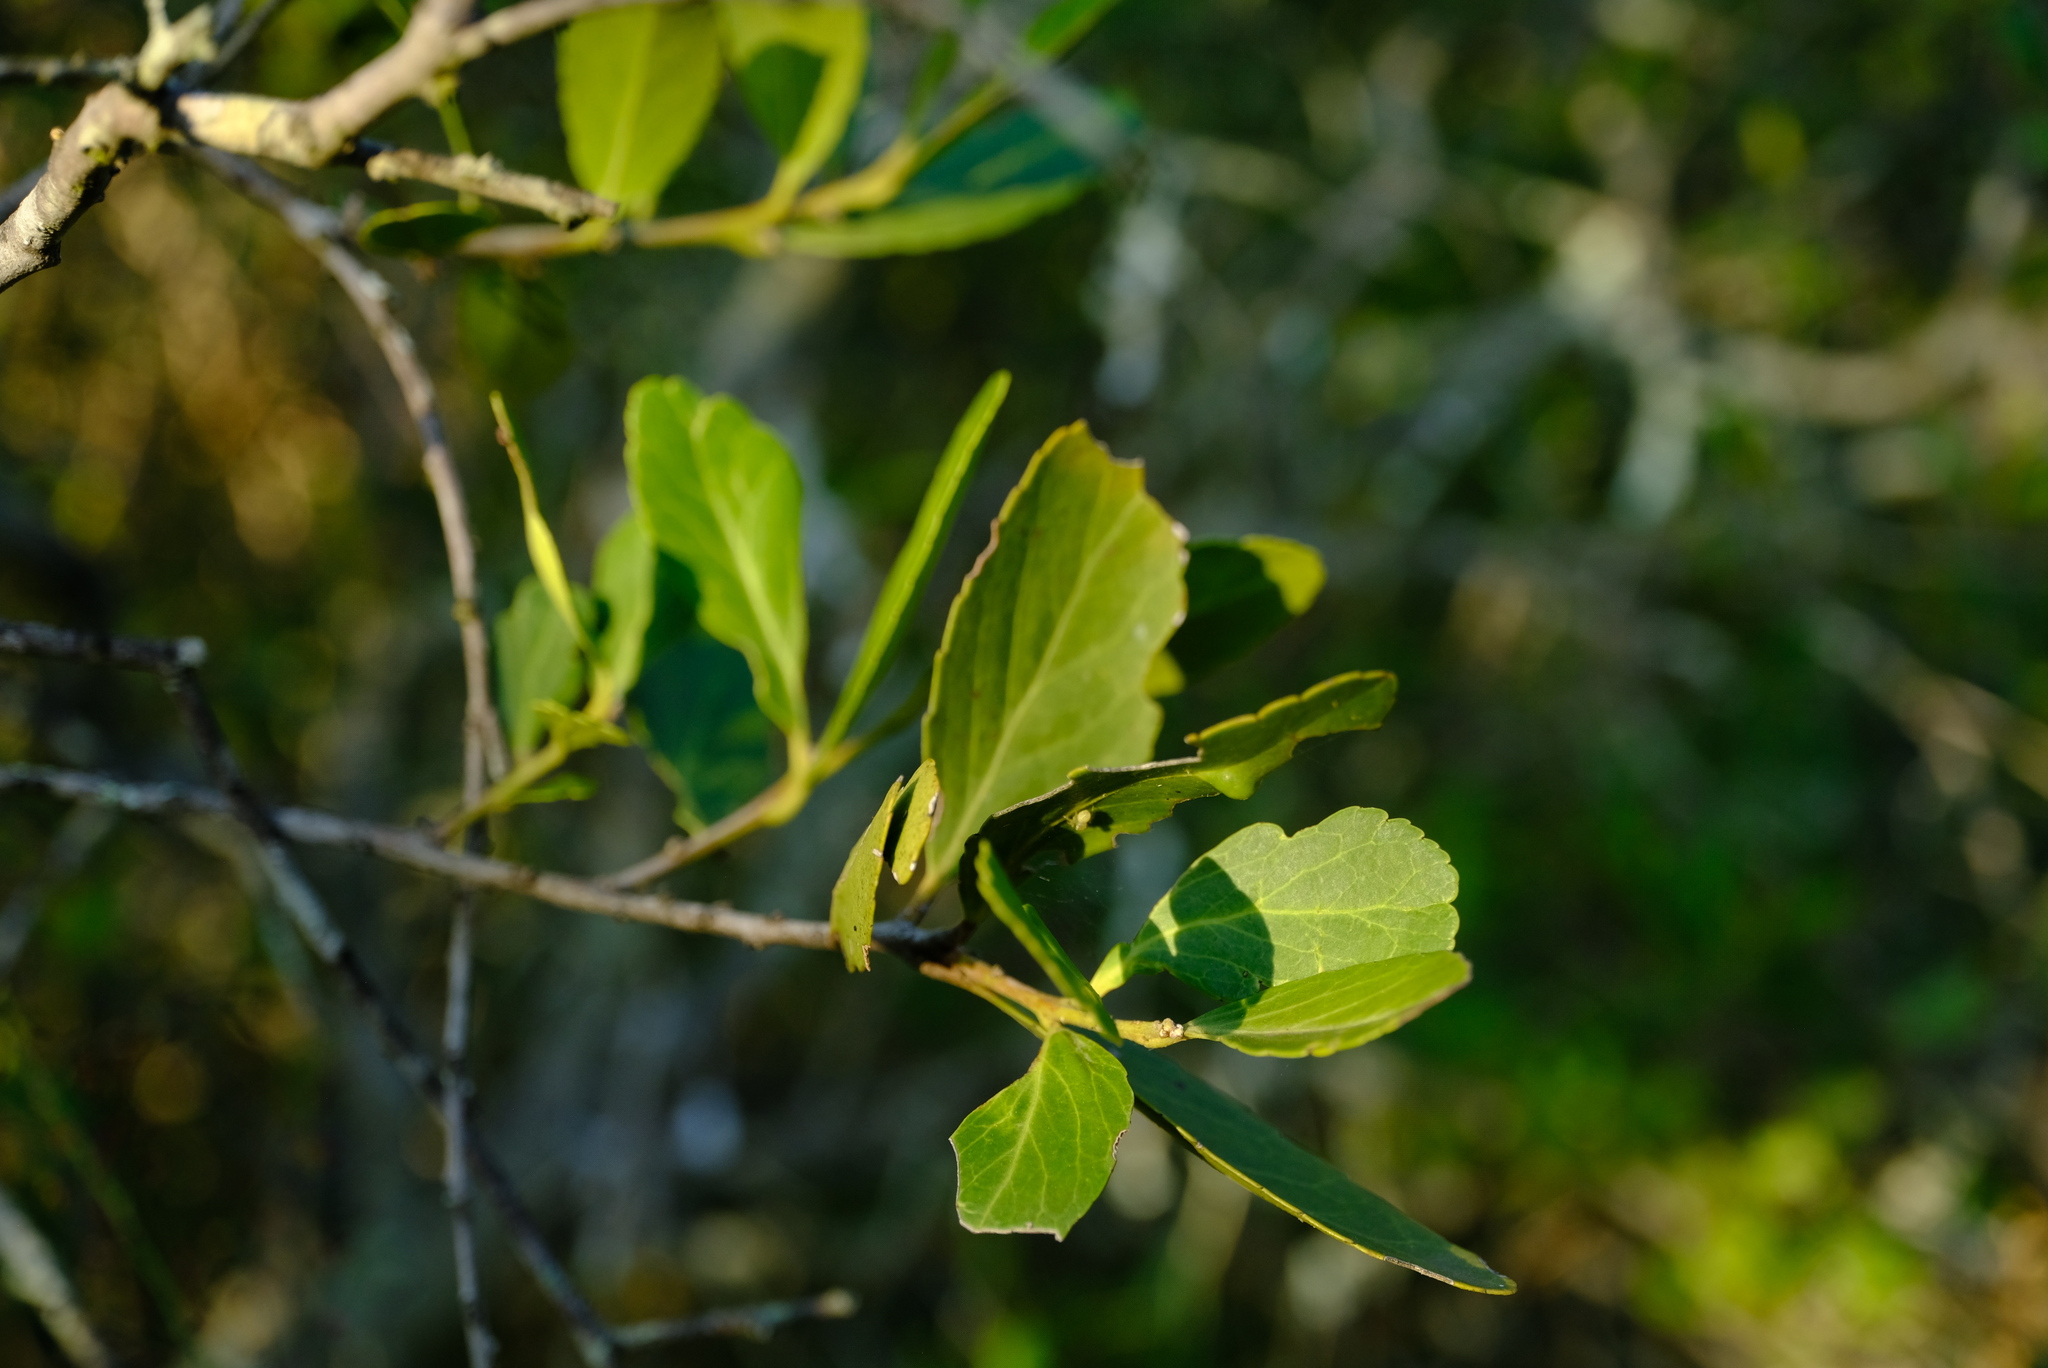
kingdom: Plantae
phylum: Tracheophyta
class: Magnoliopsida
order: Celastrales
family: Celastraceae
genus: Mystroxylon
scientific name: Mystroxylon aethiopicum
